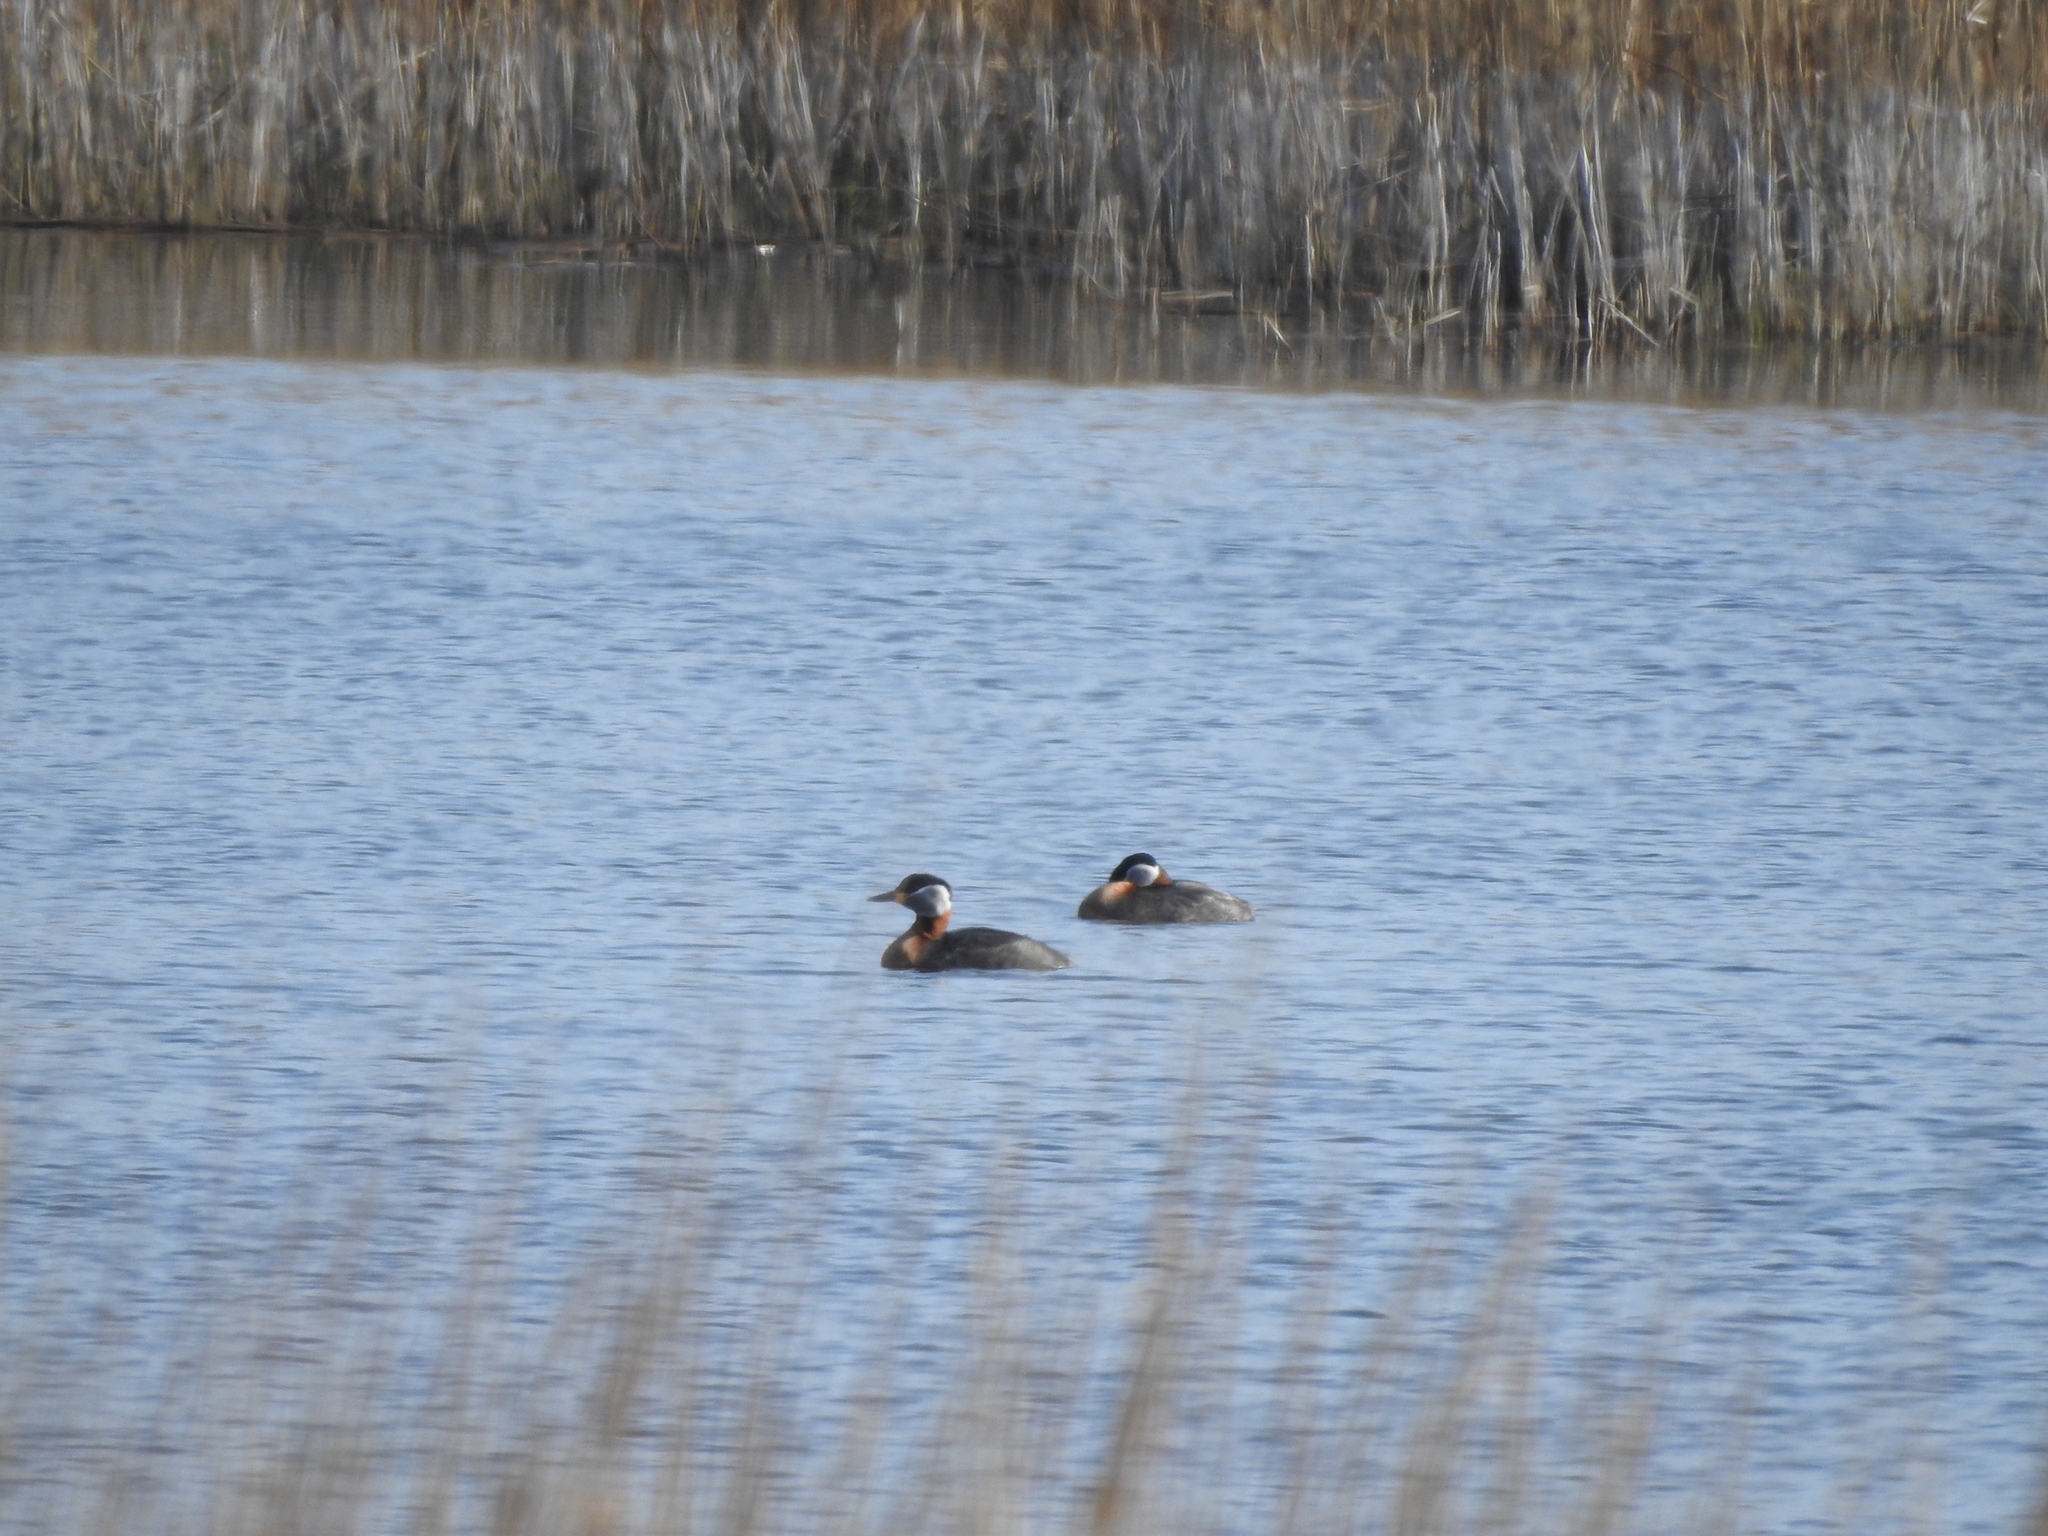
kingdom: Animalia
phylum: Chordata
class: Aves
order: Podicipediformes
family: Podicipedidae
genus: Podiceps
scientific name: Podiceps grisegena
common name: Red-necked grebe
